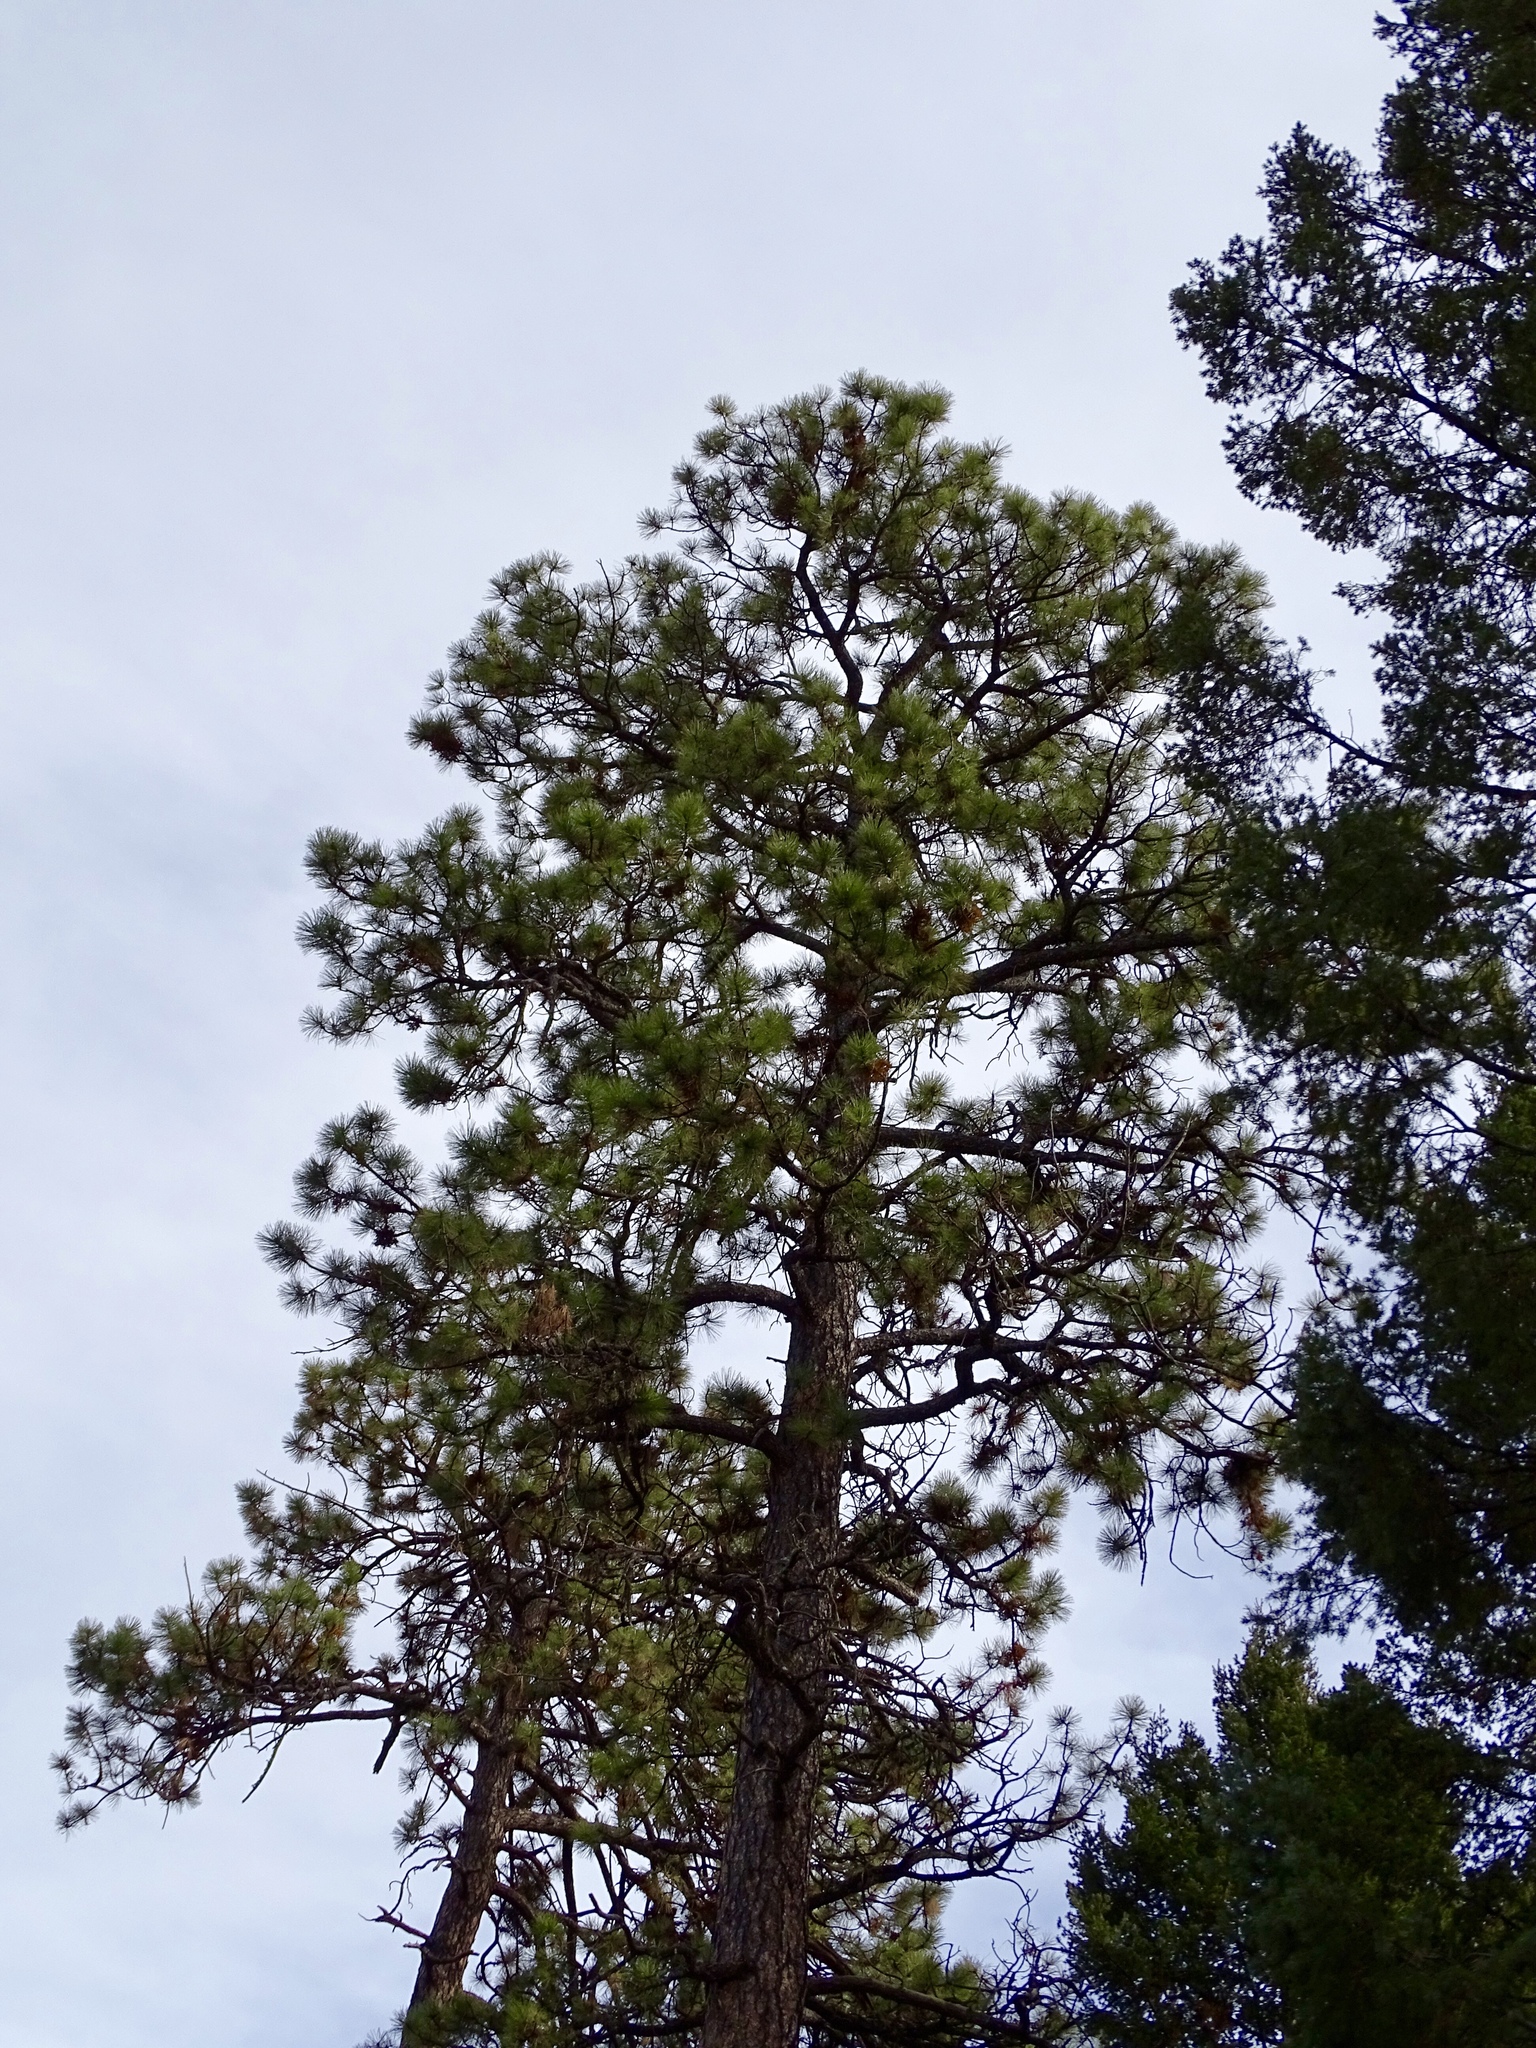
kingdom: Plantae
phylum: Tracheophyta
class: Pinopsida
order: Pinales
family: Pinaceae
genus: Pinus
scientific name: Pinus ponderosa
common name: Western yellow-pine
